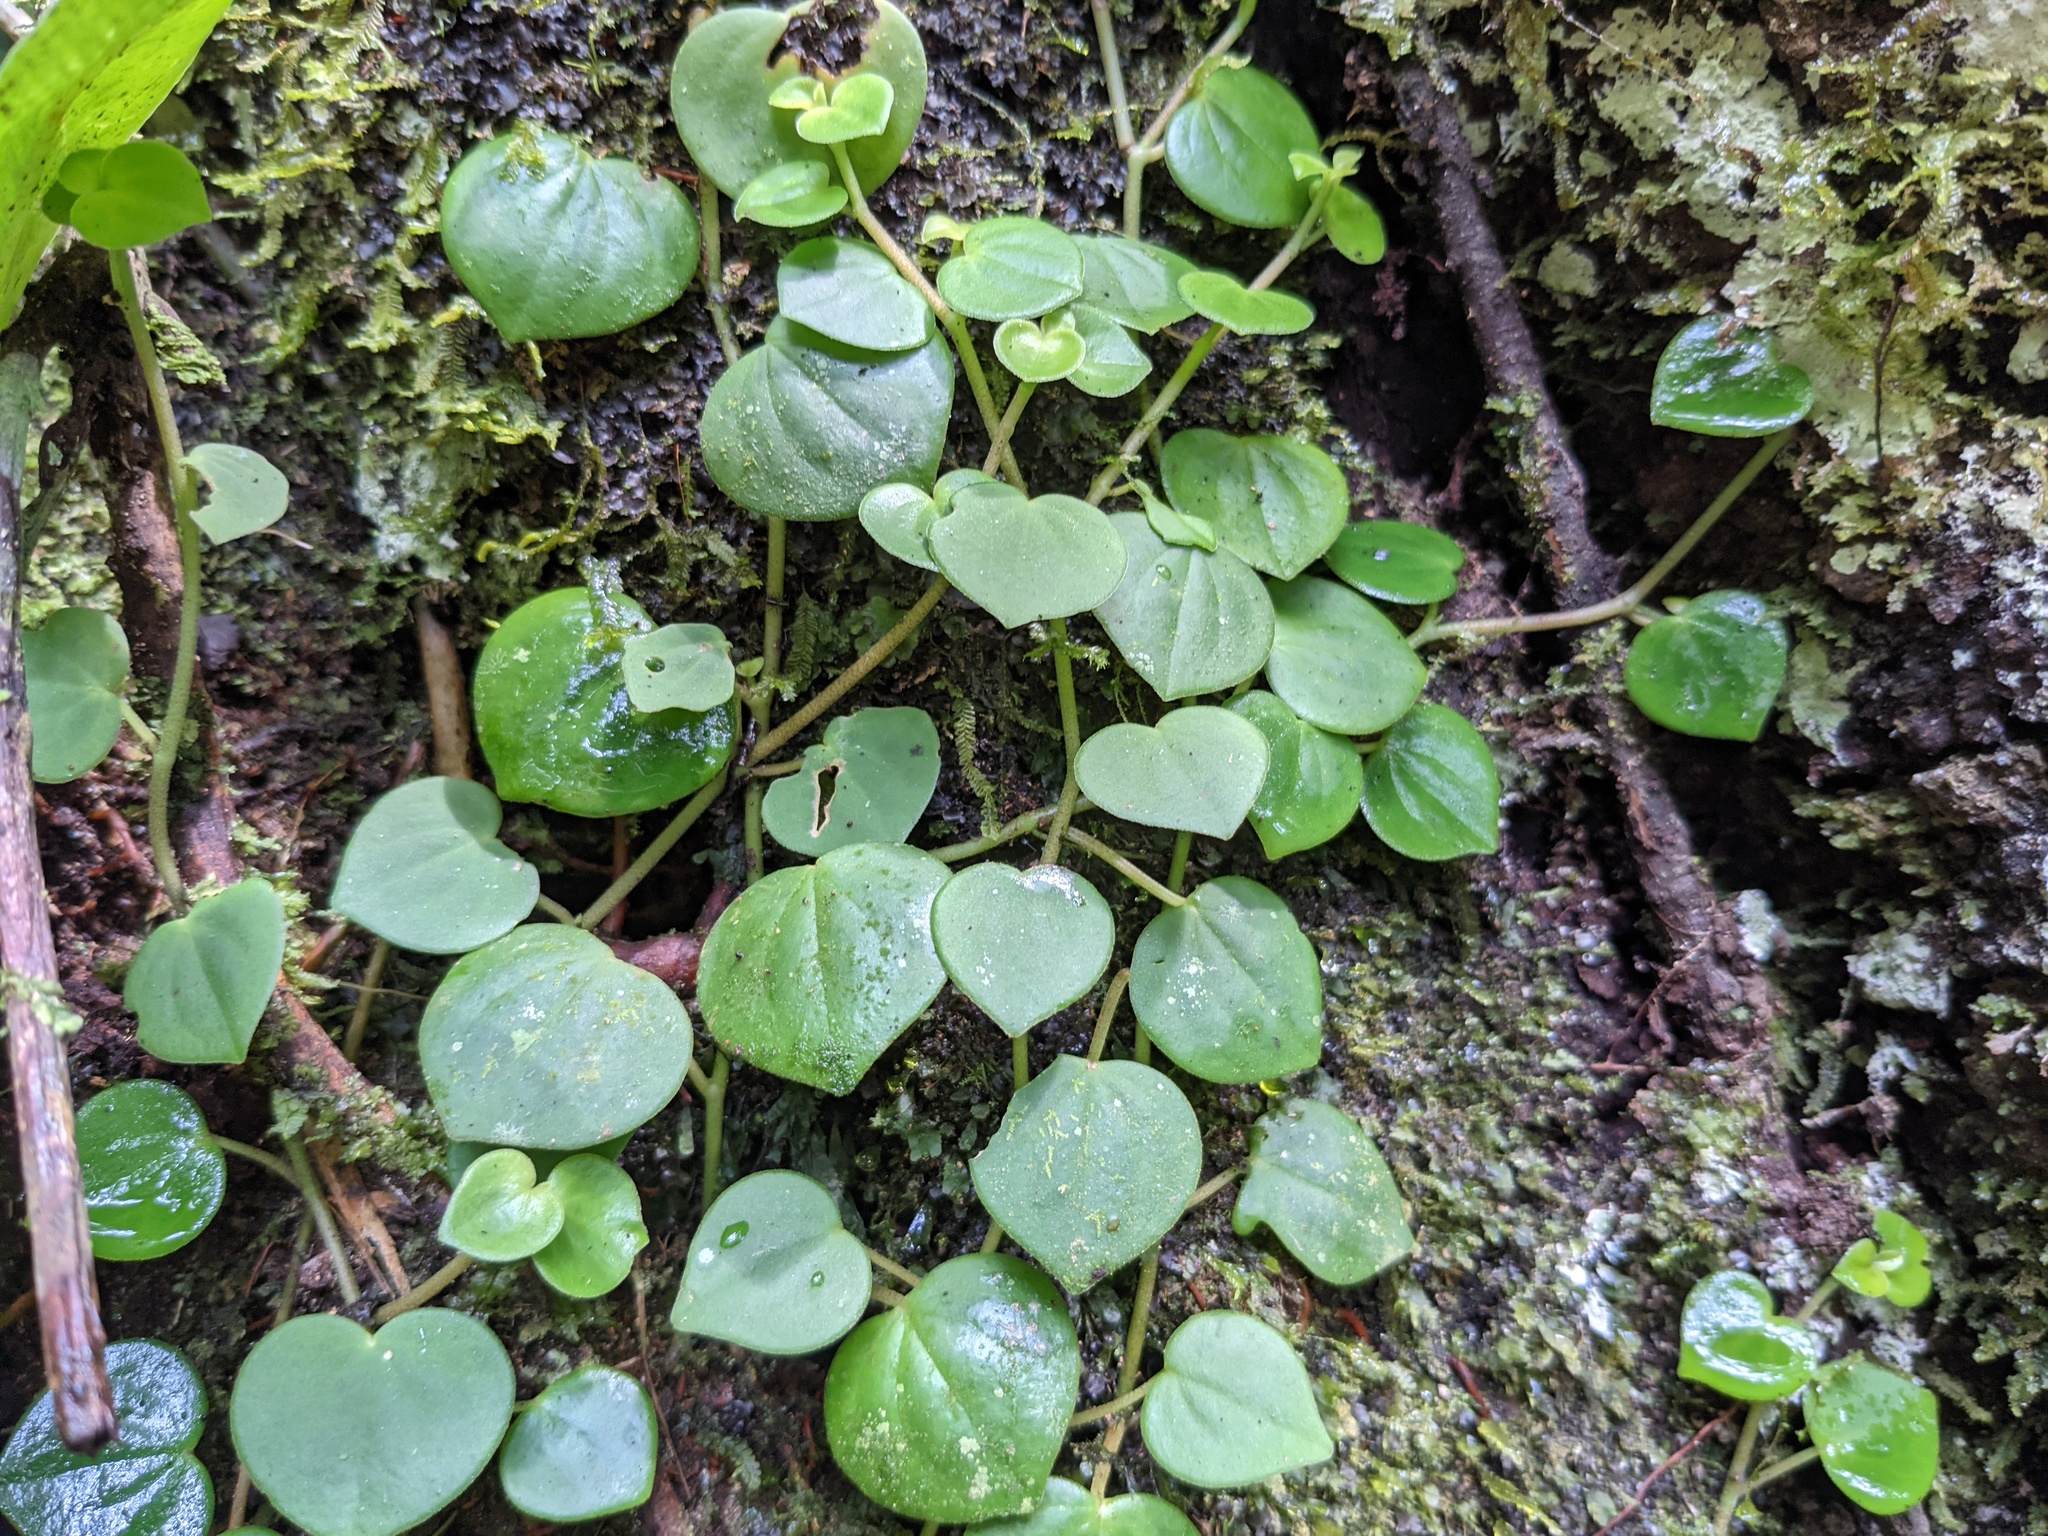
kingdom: Plantae
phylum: Tracheophyta
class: Magnoliopsida
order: Piperales
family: Piperaceae
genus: Peperomia
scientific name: Peperomia serpens
